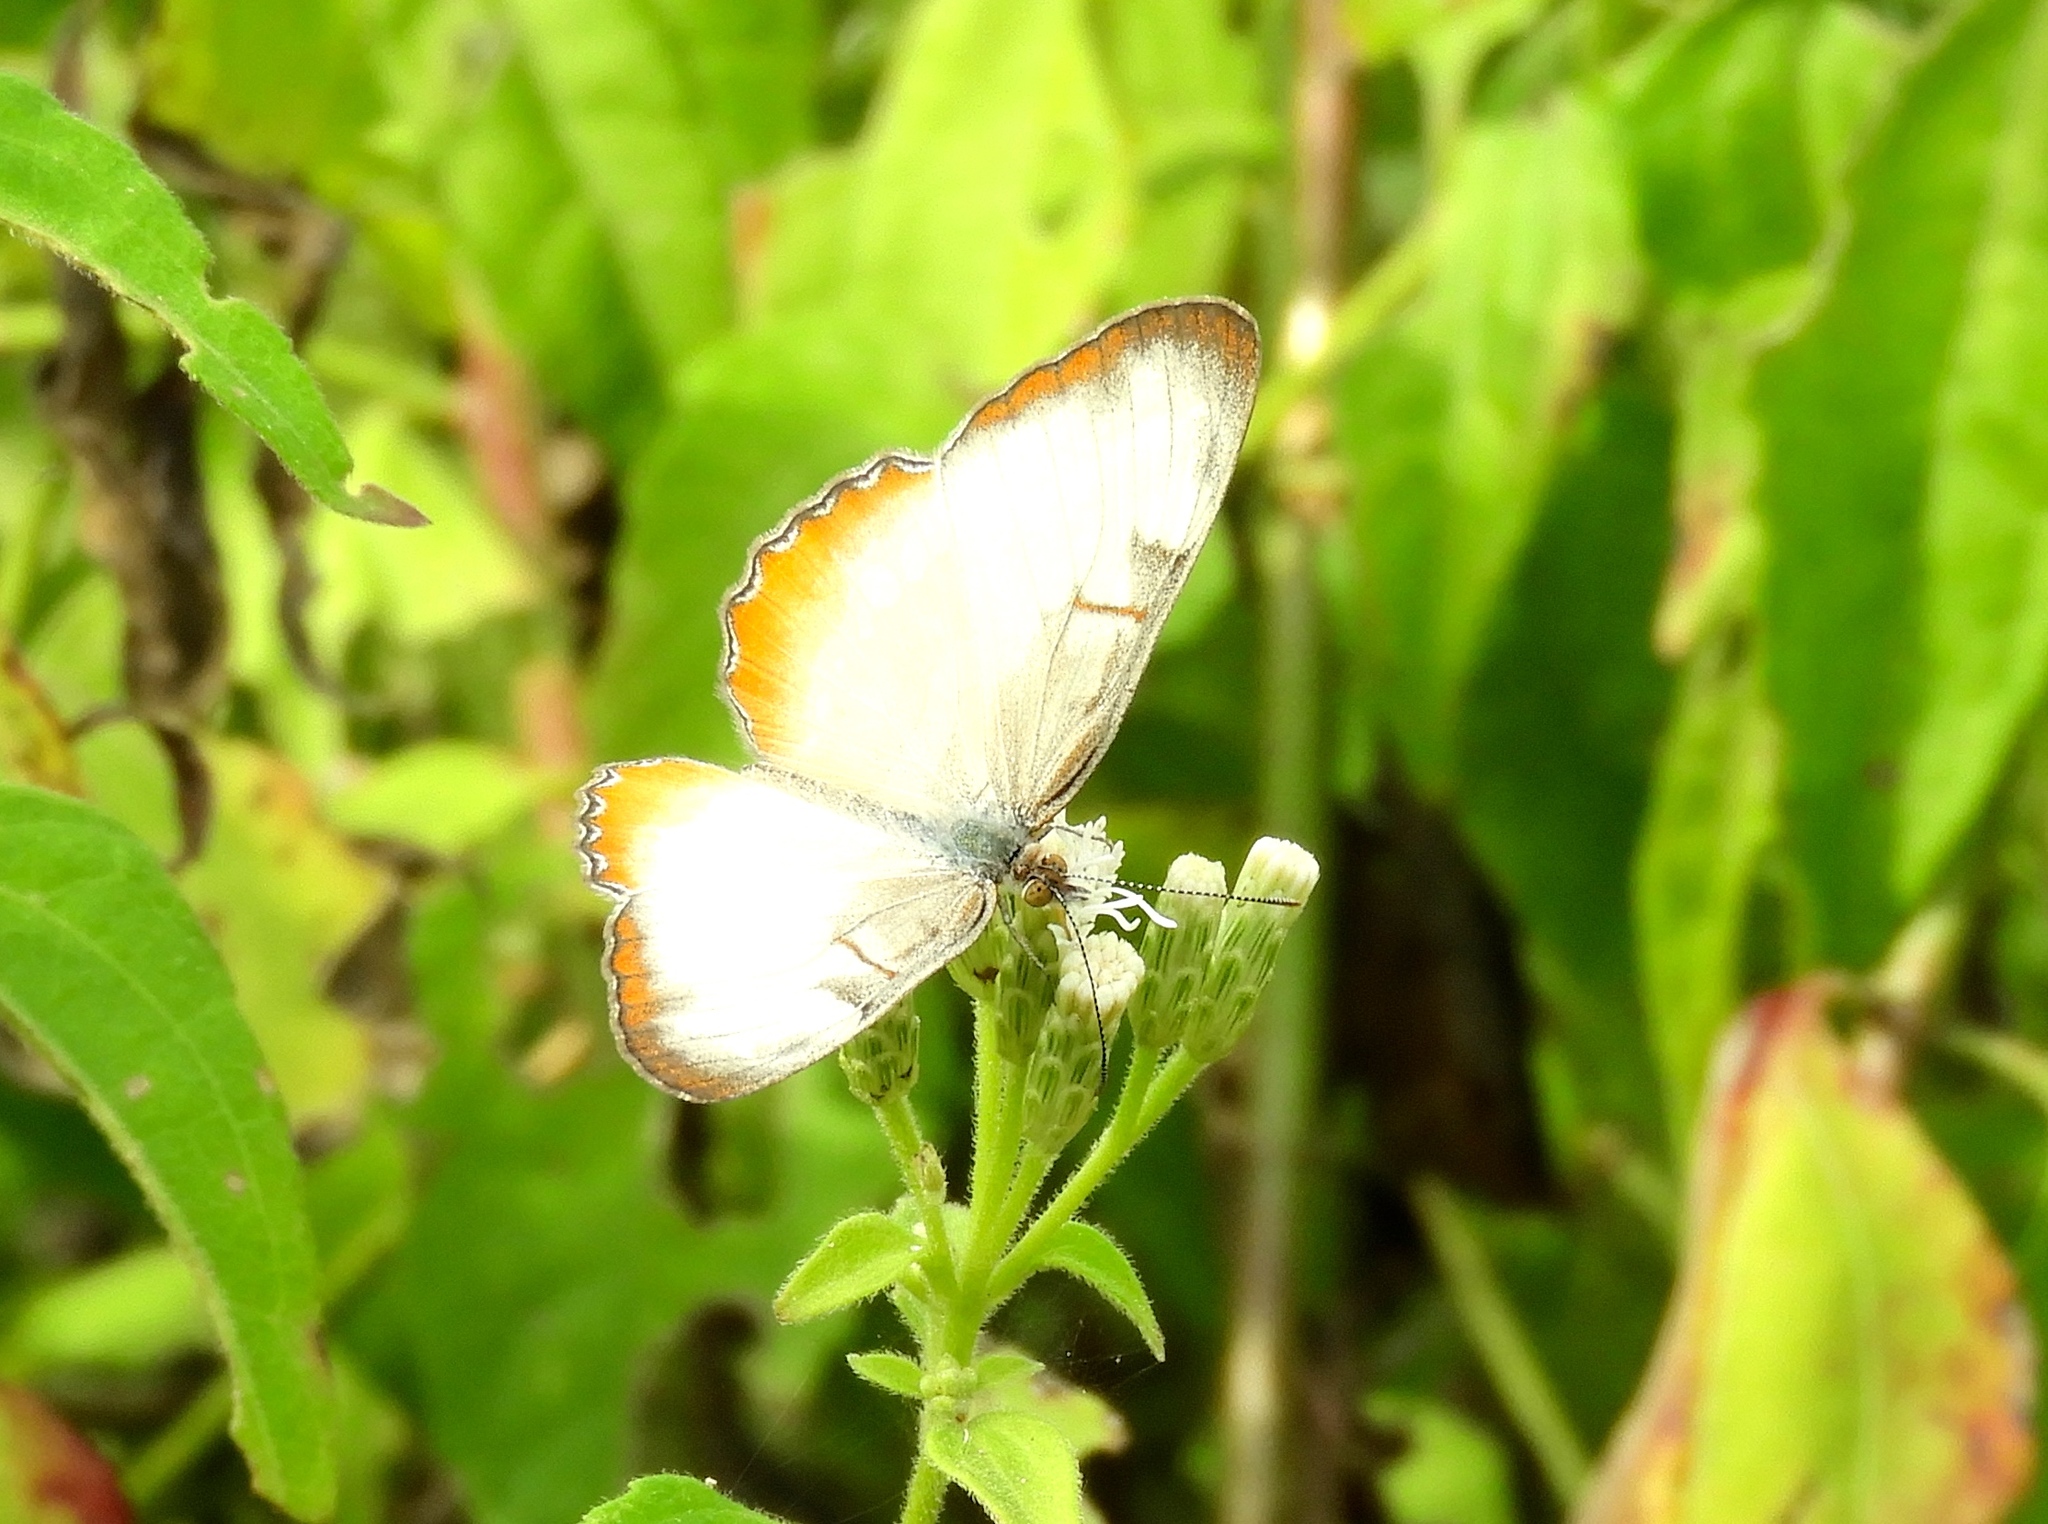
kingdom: Animalia
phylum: Arthropoda
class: Insecta
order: Lepidoptera
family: Nymphalidae
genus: Mestra
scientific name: Mestra amymone
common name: Common mestra
